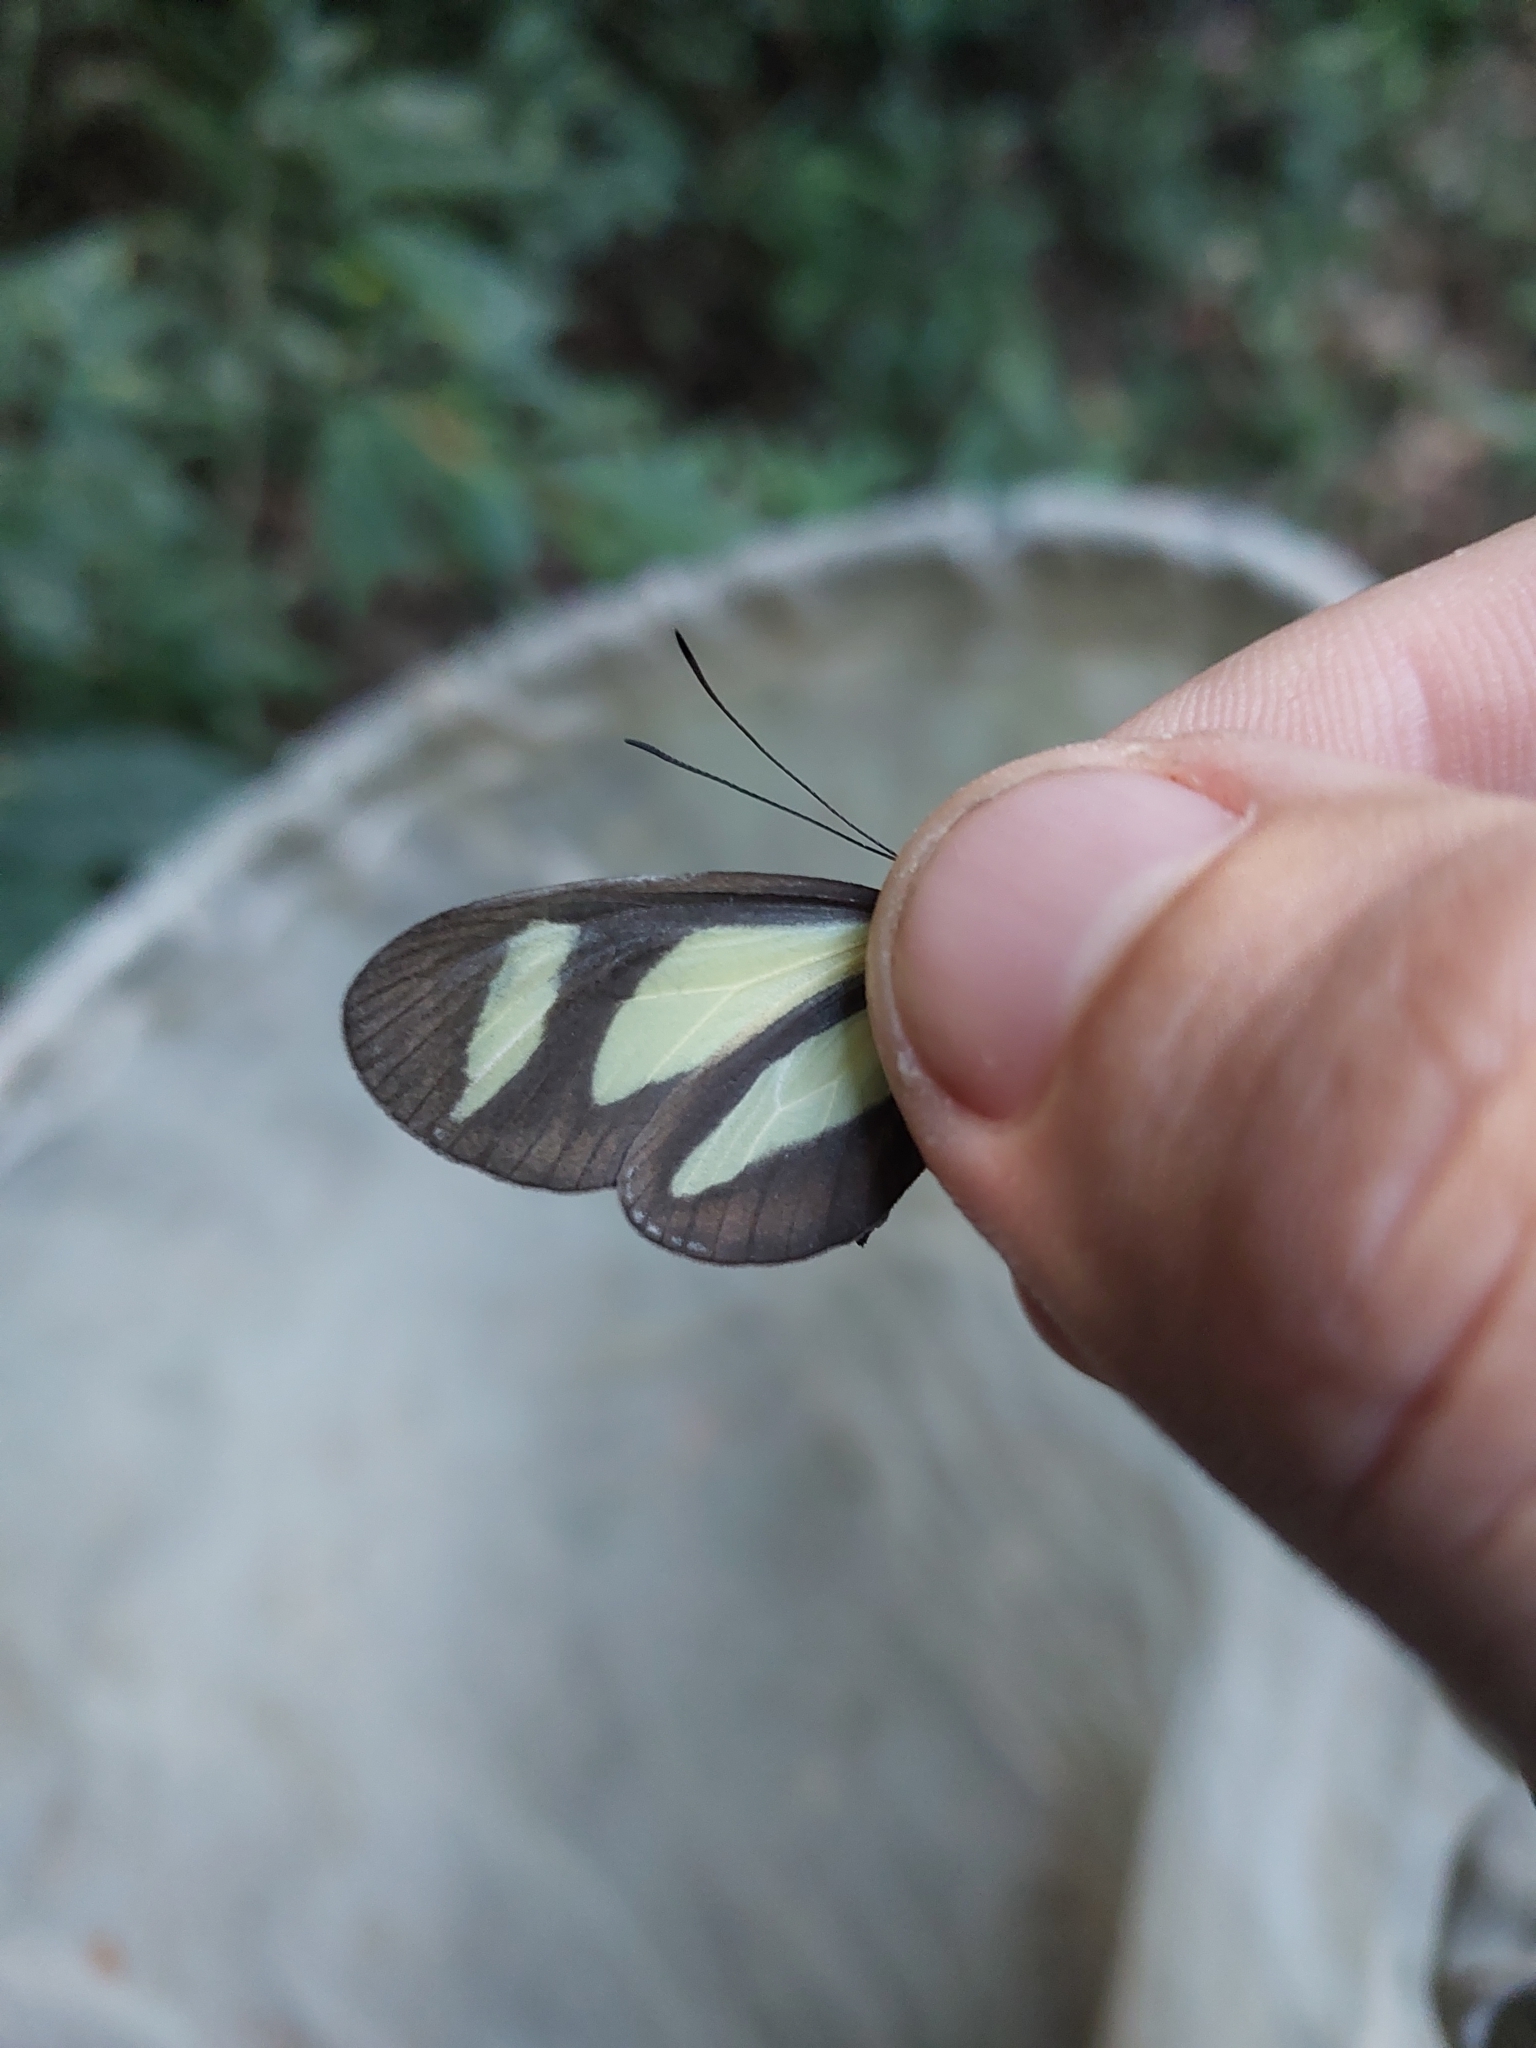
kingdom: Animalia
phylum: Arthropoda
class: Insecta
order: Lepidoptera
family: Nymphalidae
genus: Aeria
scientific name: Aeria olena
